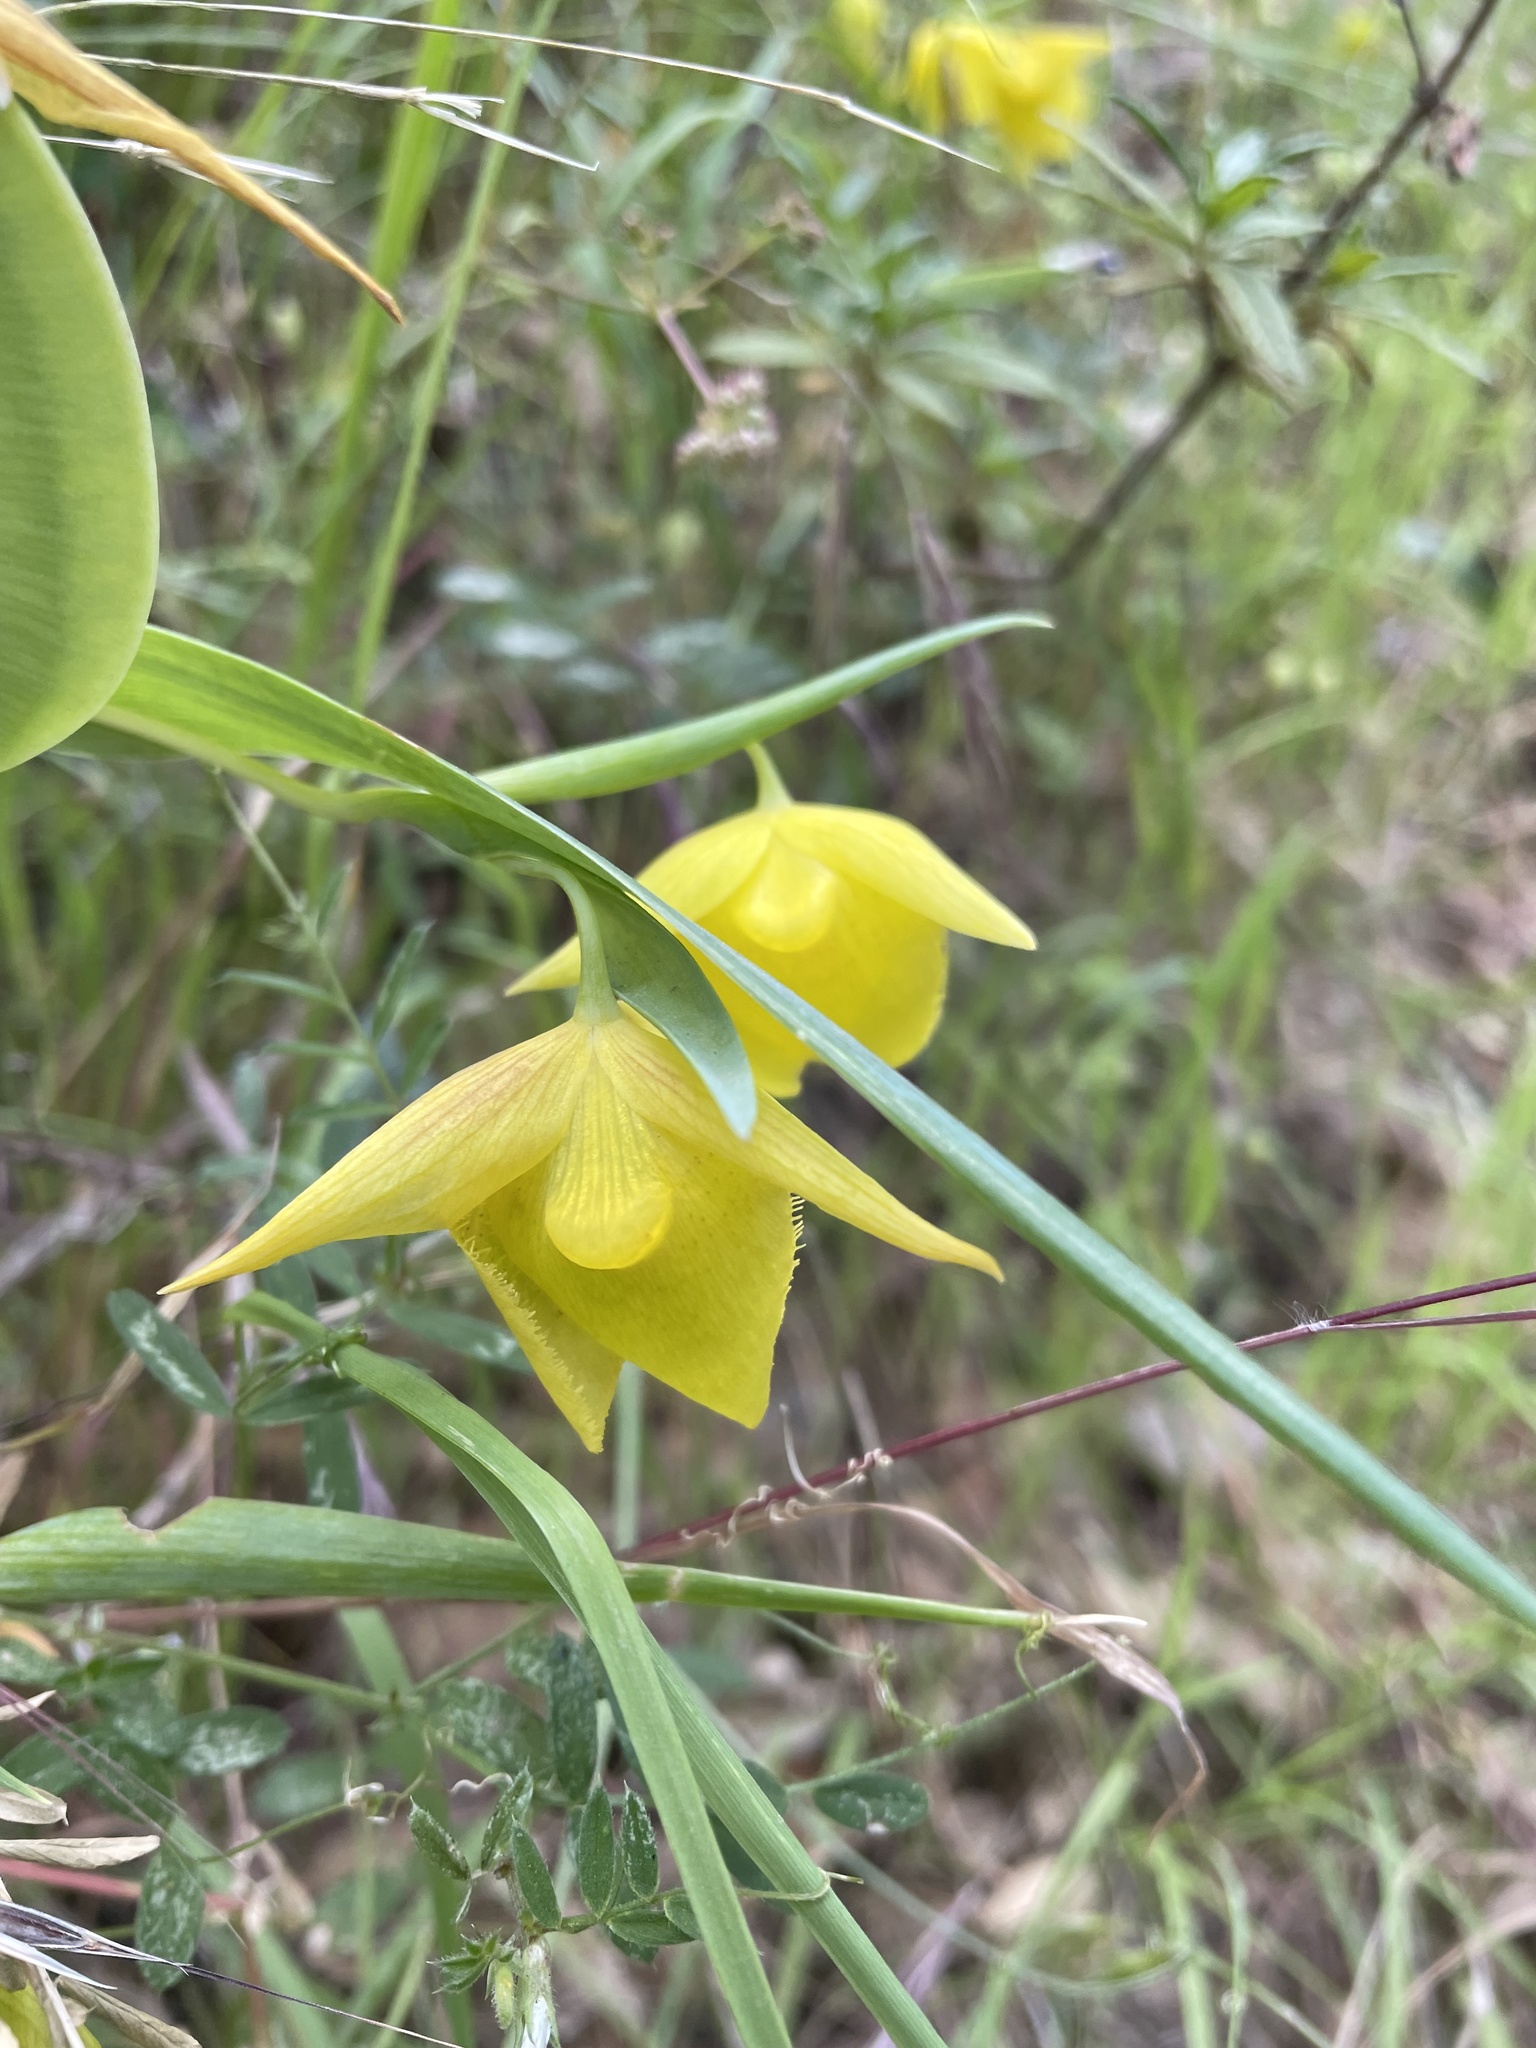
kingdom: Plantae
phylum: Tracheophyta
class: Liliopsida
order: Liliales
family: Liliaceae
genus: Calochortus
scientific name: Calochortus pulchellus
